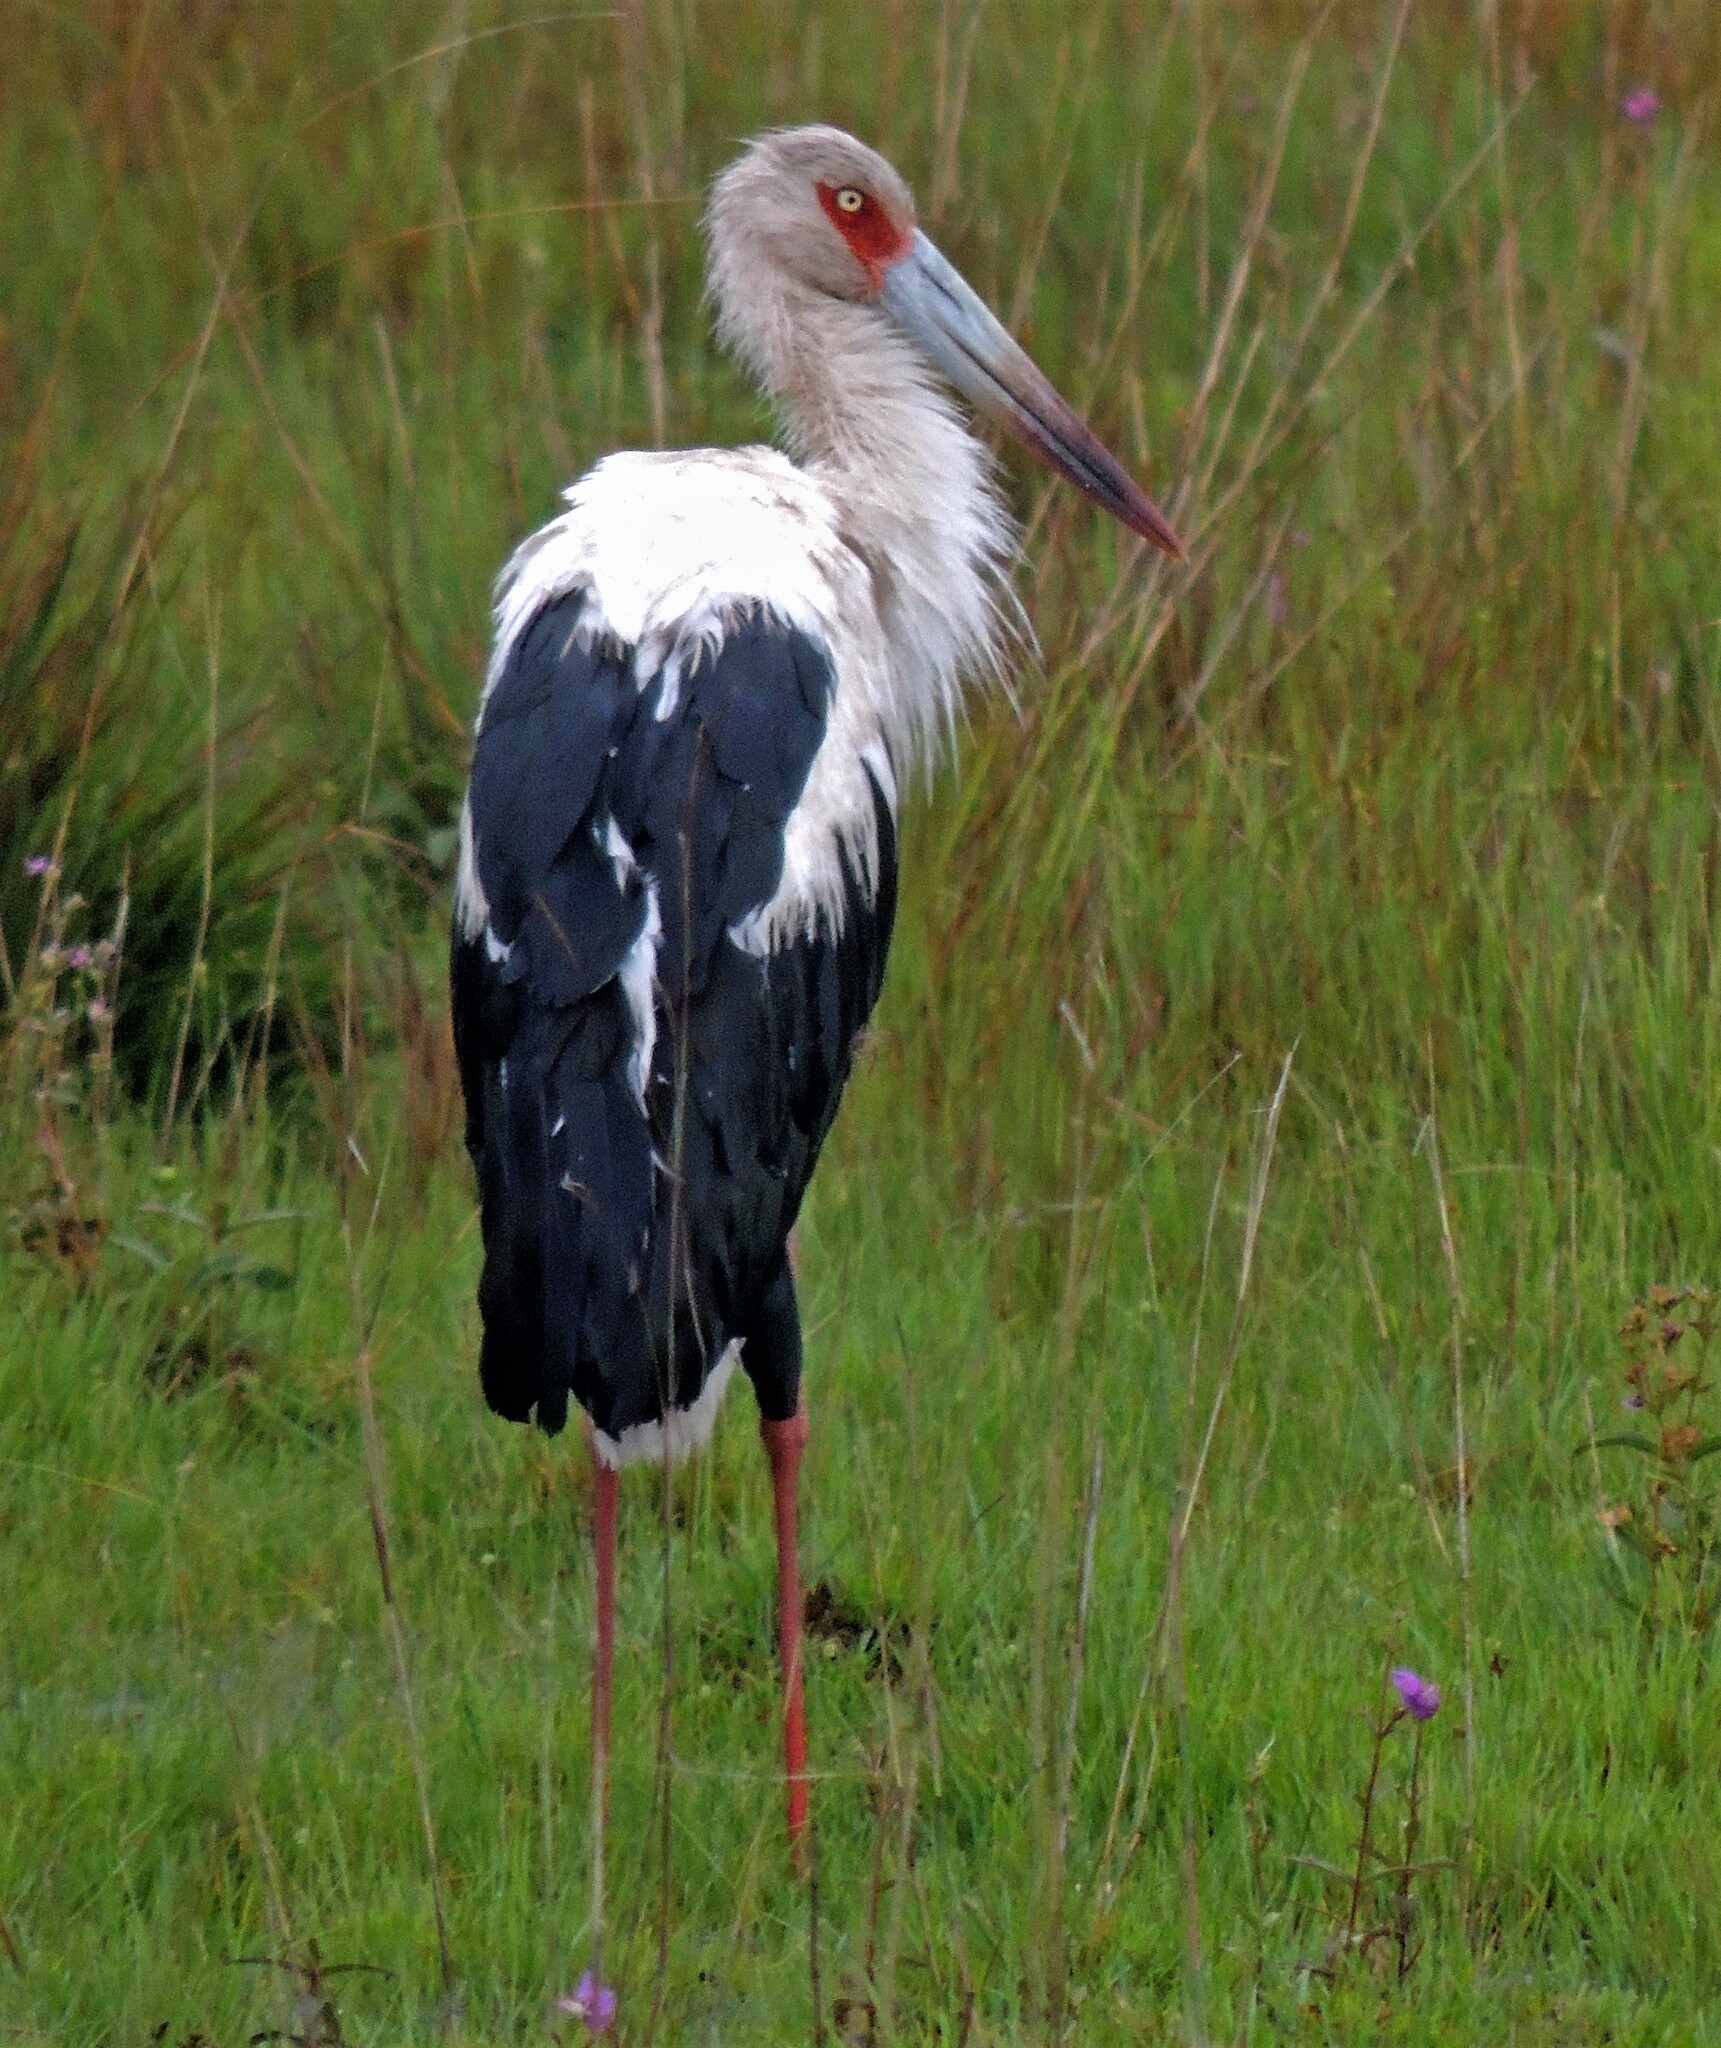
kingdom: Animalia
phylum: Chordata
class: Aves
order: Ciconiiformes
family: Ciconiidae
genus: Ciconia
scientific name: Ciconia maguari
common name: Maguari stork
